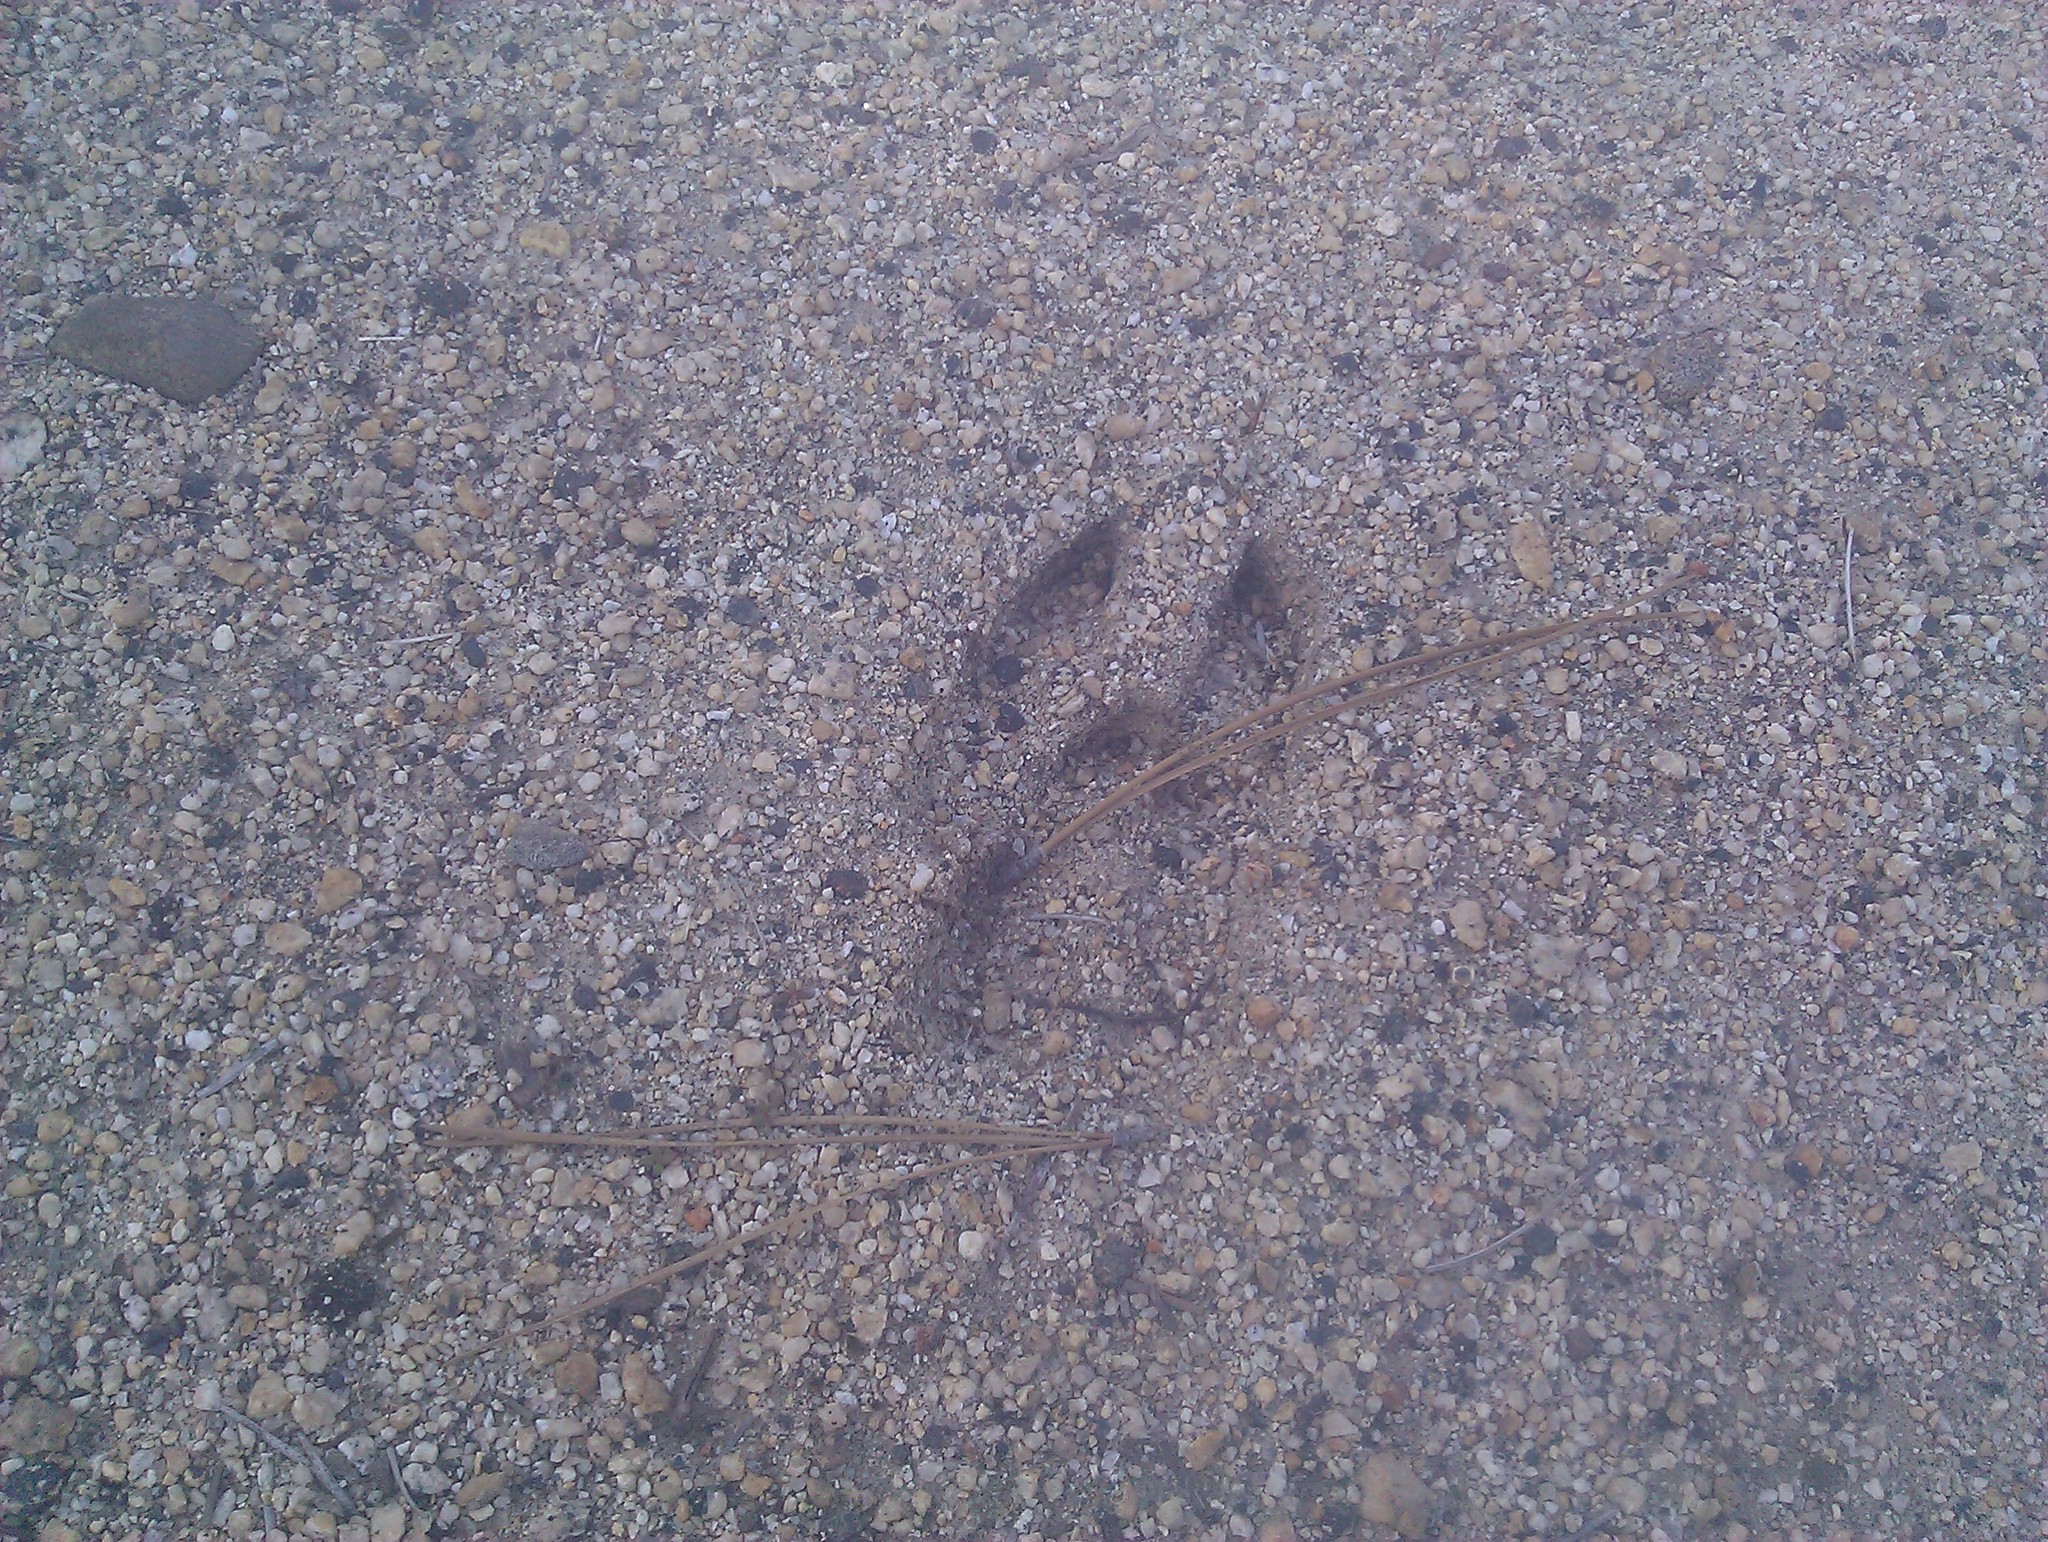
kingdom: Animalia
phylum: Chordata
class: Mammalia
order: Artiodactyla
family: Cervidae
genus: Odocoileus
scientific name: Odocoileus hemionus
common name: Mule deer
